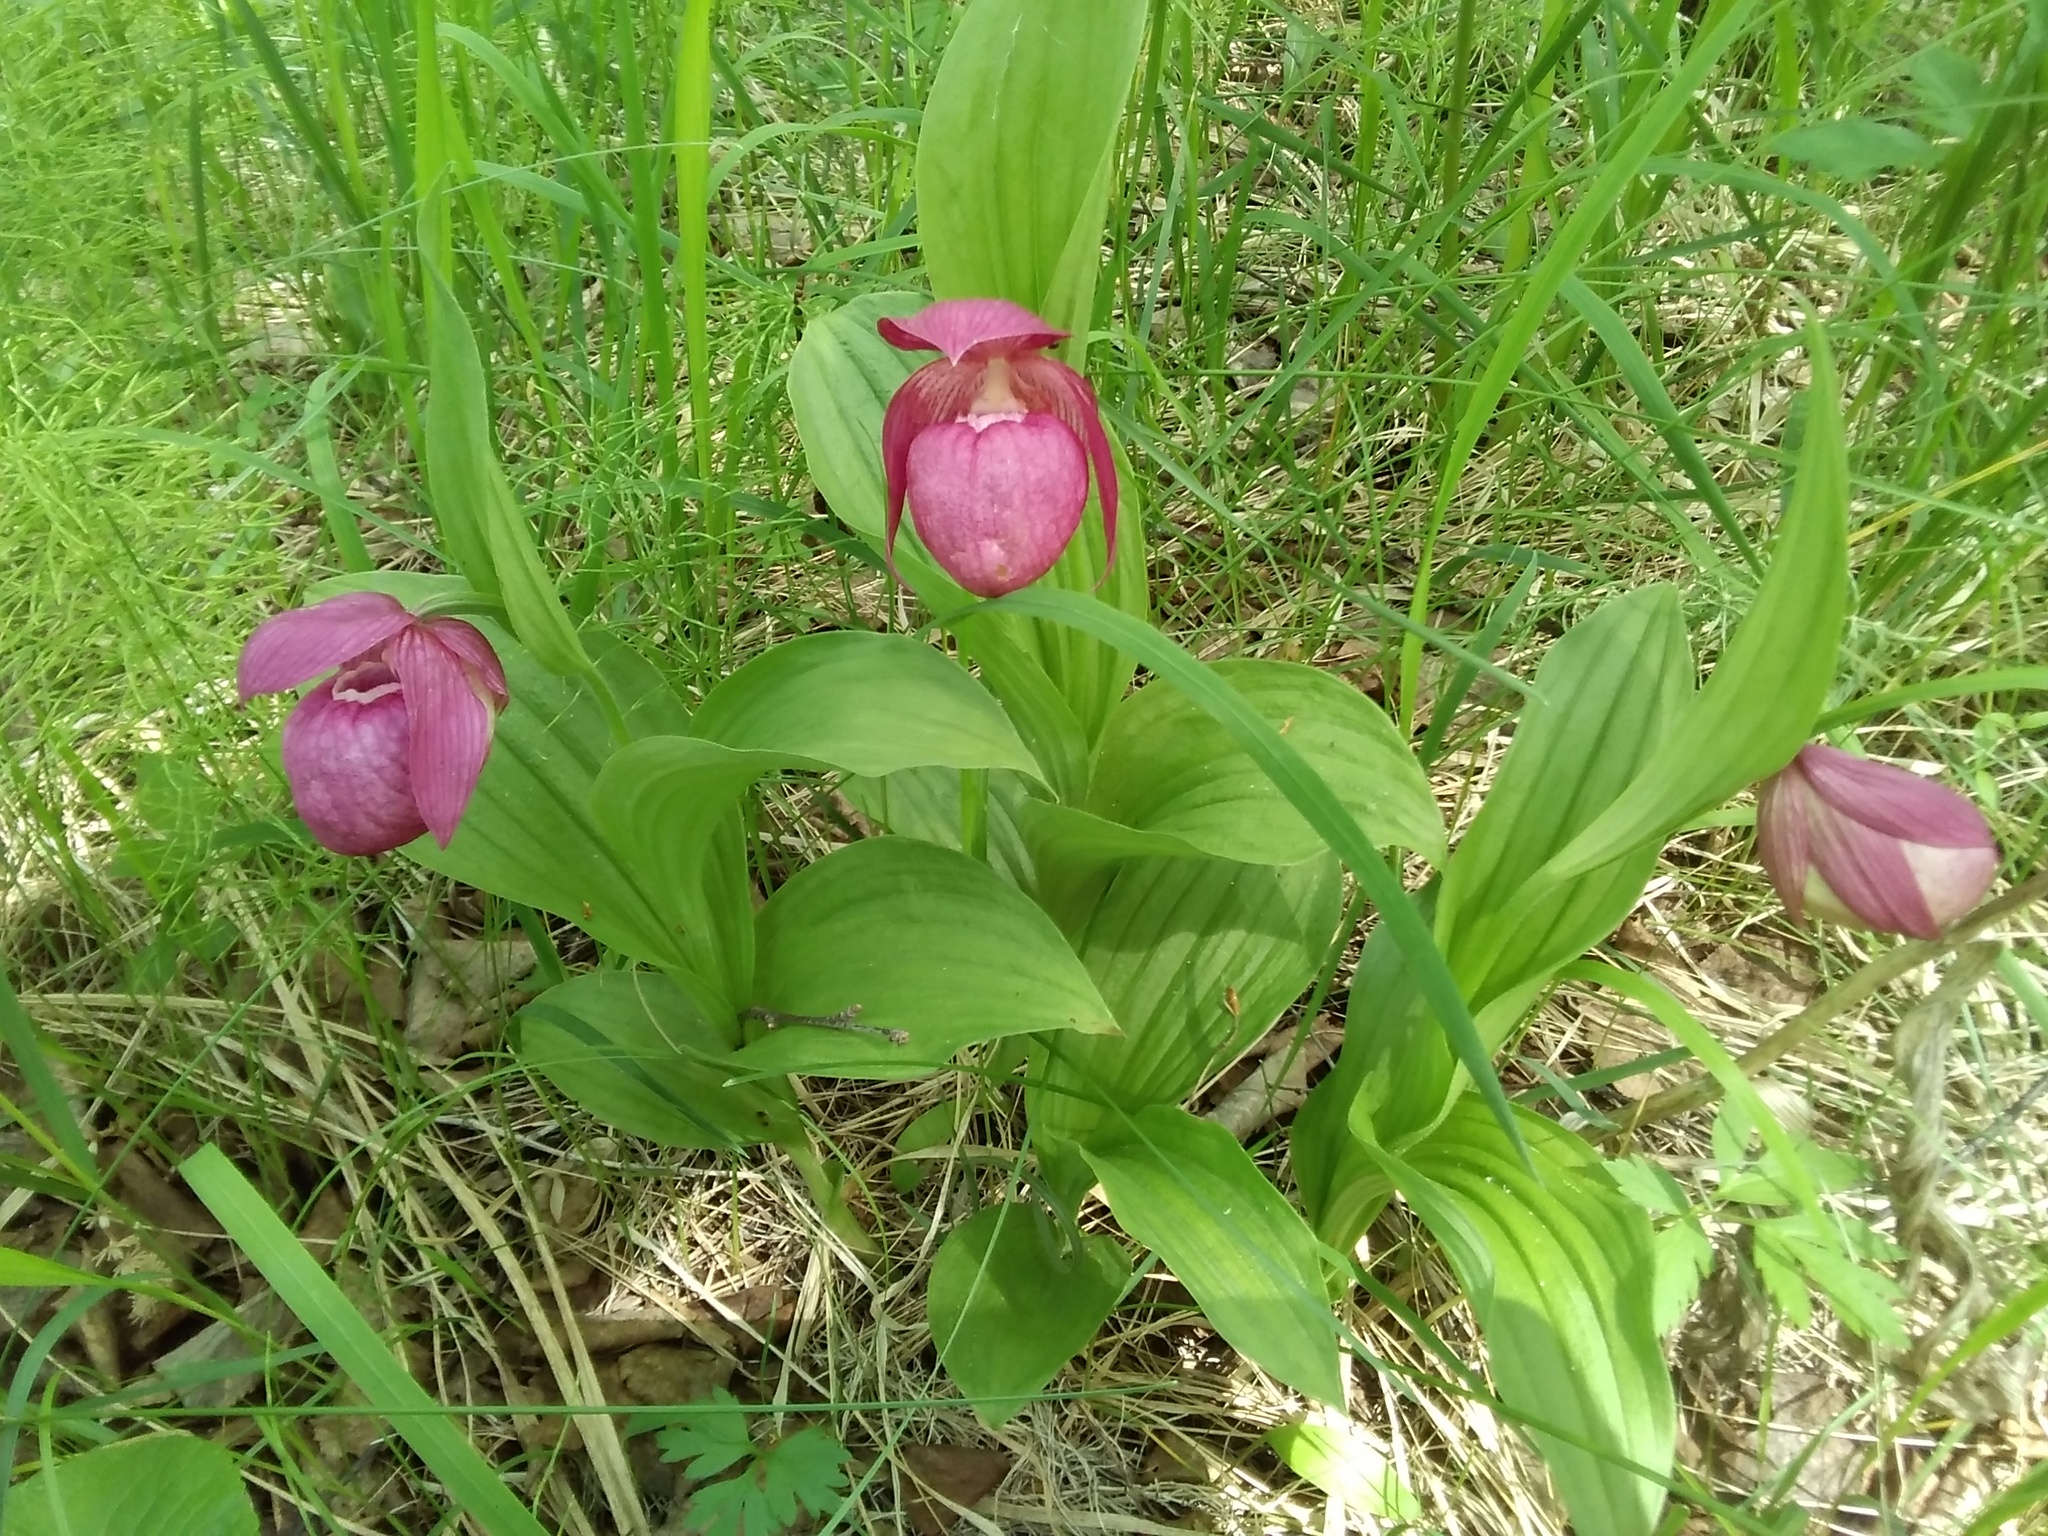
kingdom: Plantae
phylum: Tracheophyta
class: Liliopsida
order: Asparagales
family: Orchidaceae
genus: Cypripedium
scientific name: Cypripedium macranthos
